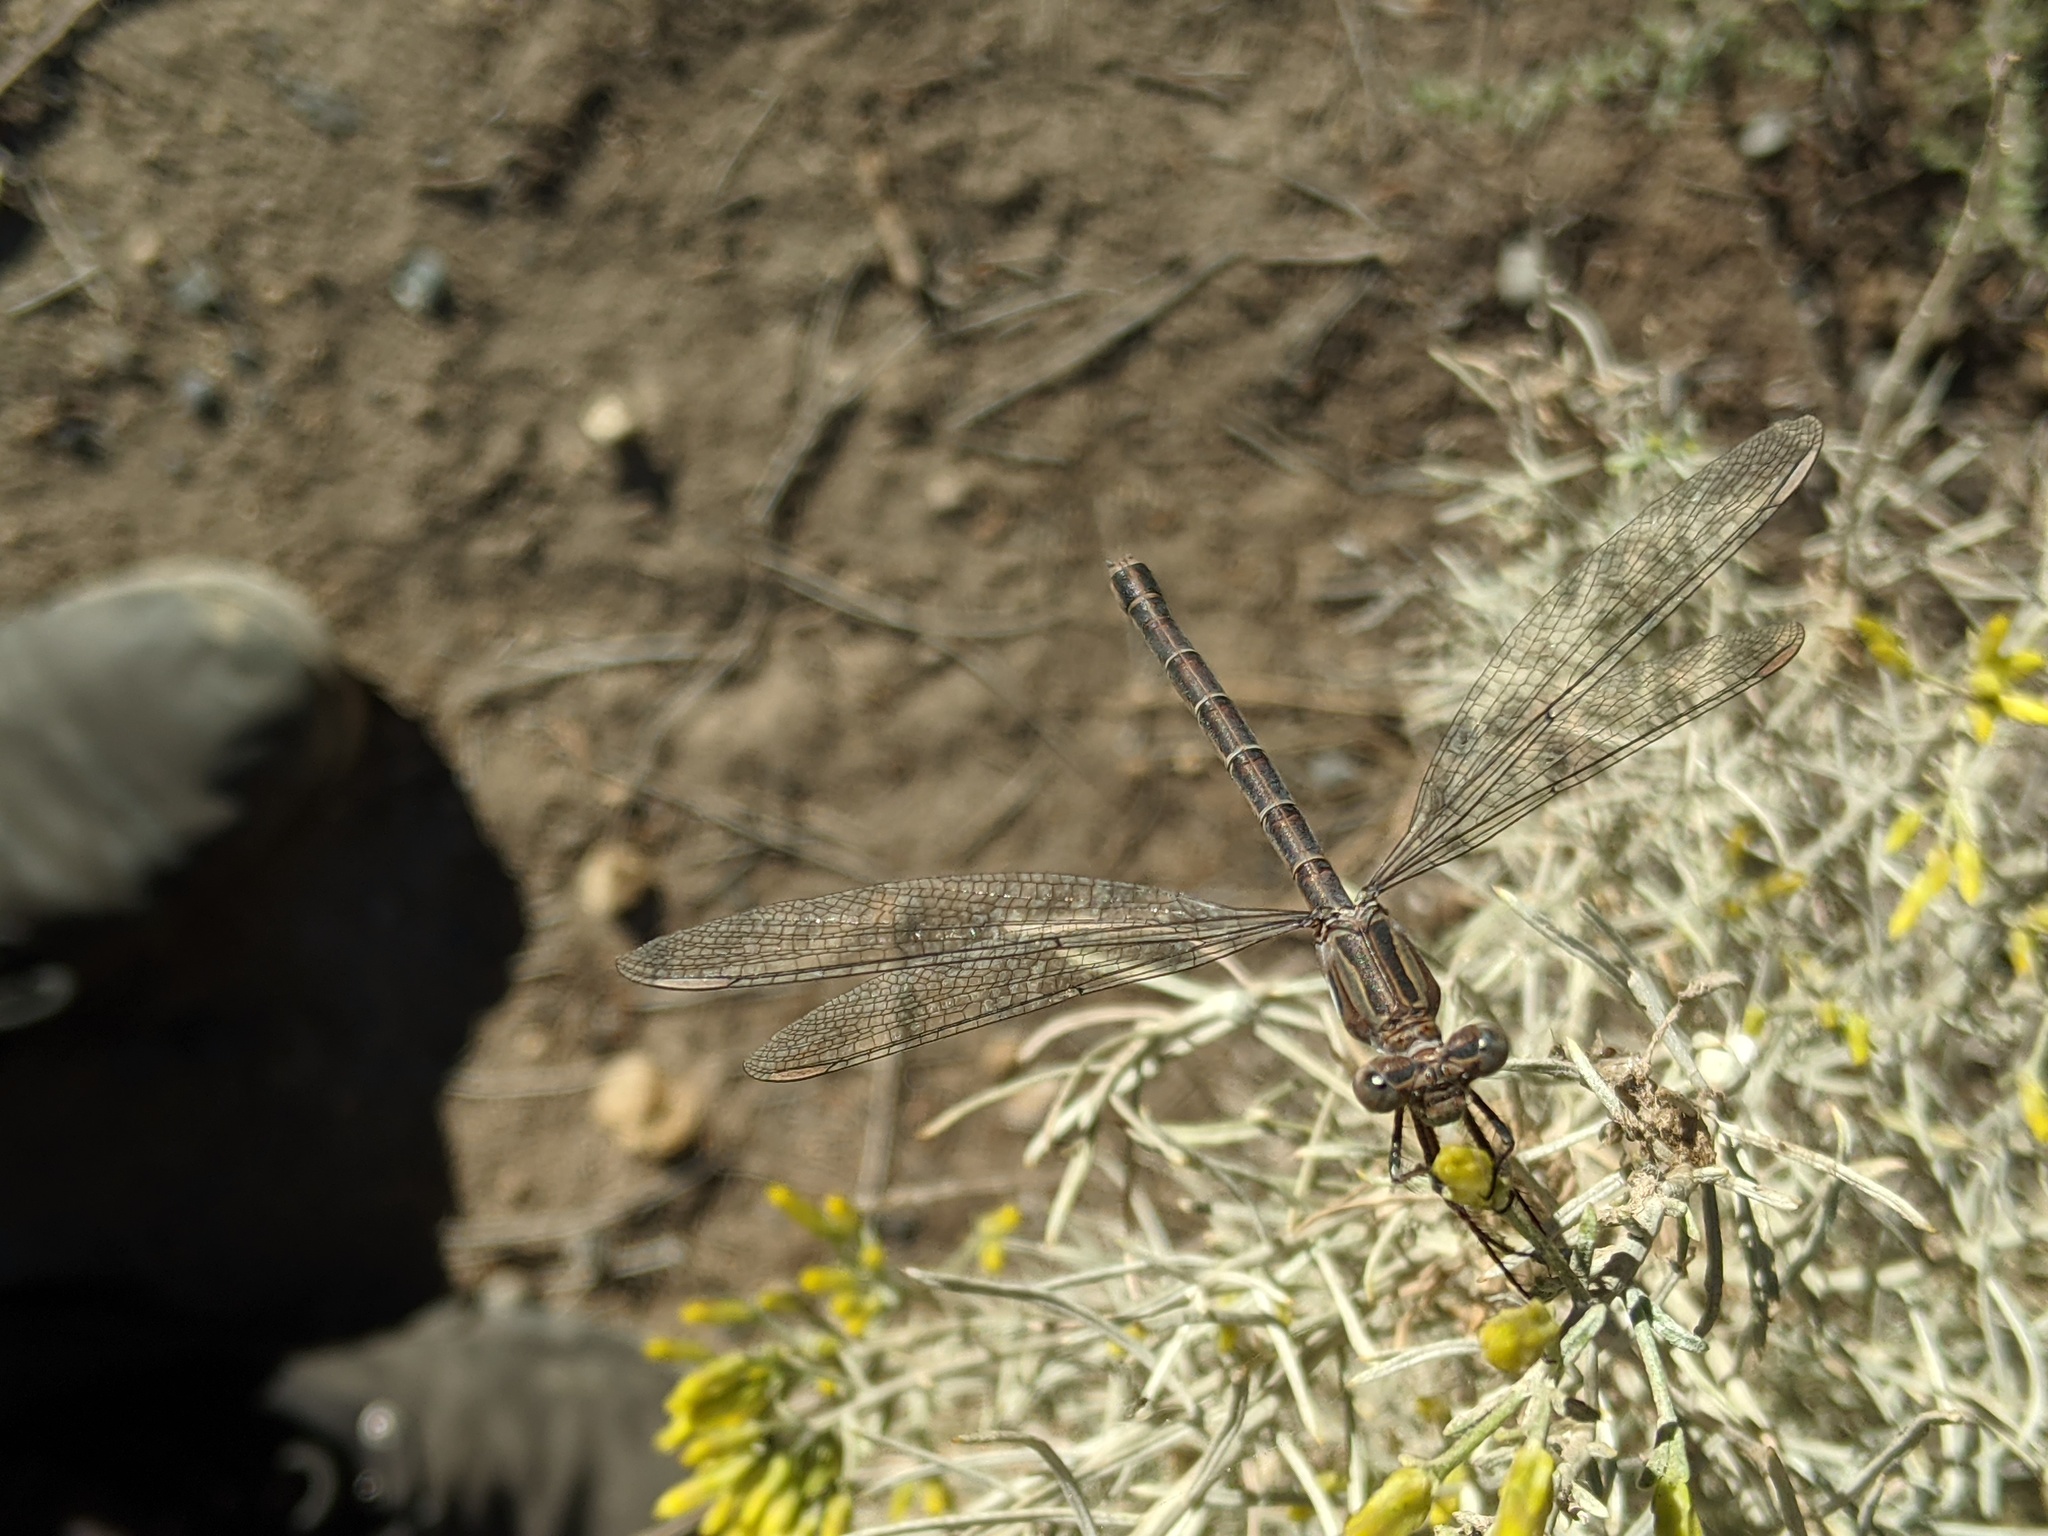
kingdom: Animalia
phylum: Arthropoda
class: Insecta
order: Odonata
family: Lestidae
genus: Archilestes
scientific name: Archilestes californicus
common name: California spreadwing
